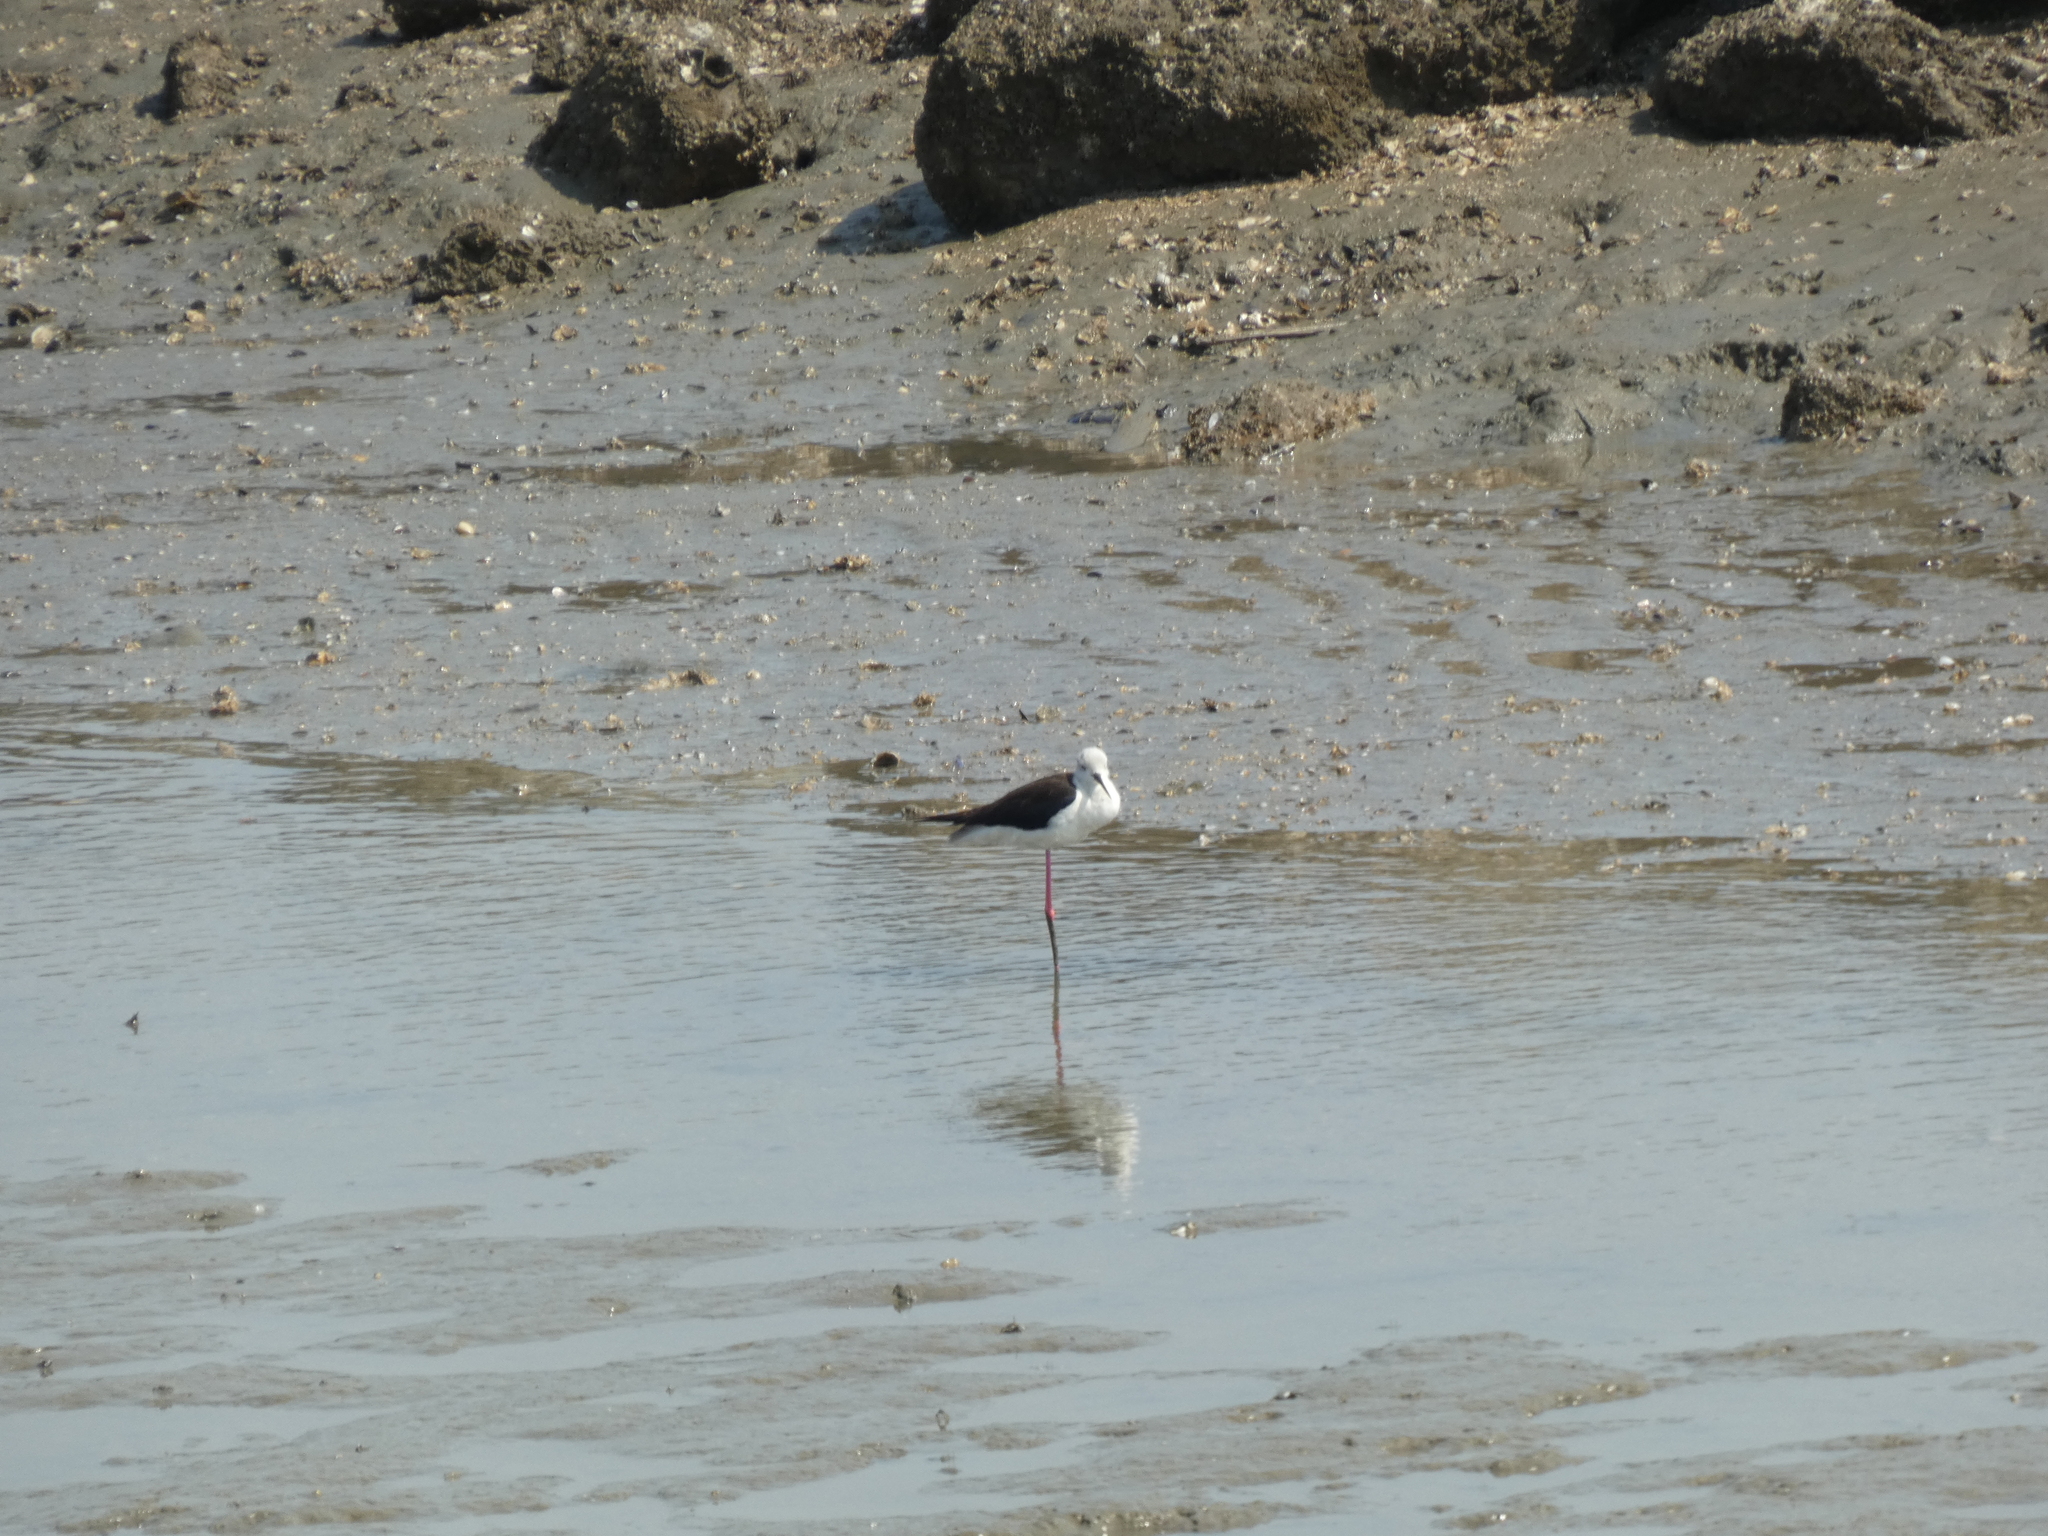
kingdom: Animalia
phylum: Chordata
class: Aves
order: Charadriiformes
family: Recurvirostridae
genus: Himantopus
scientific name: Himantopus himantopus
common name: Black-winged stilt
